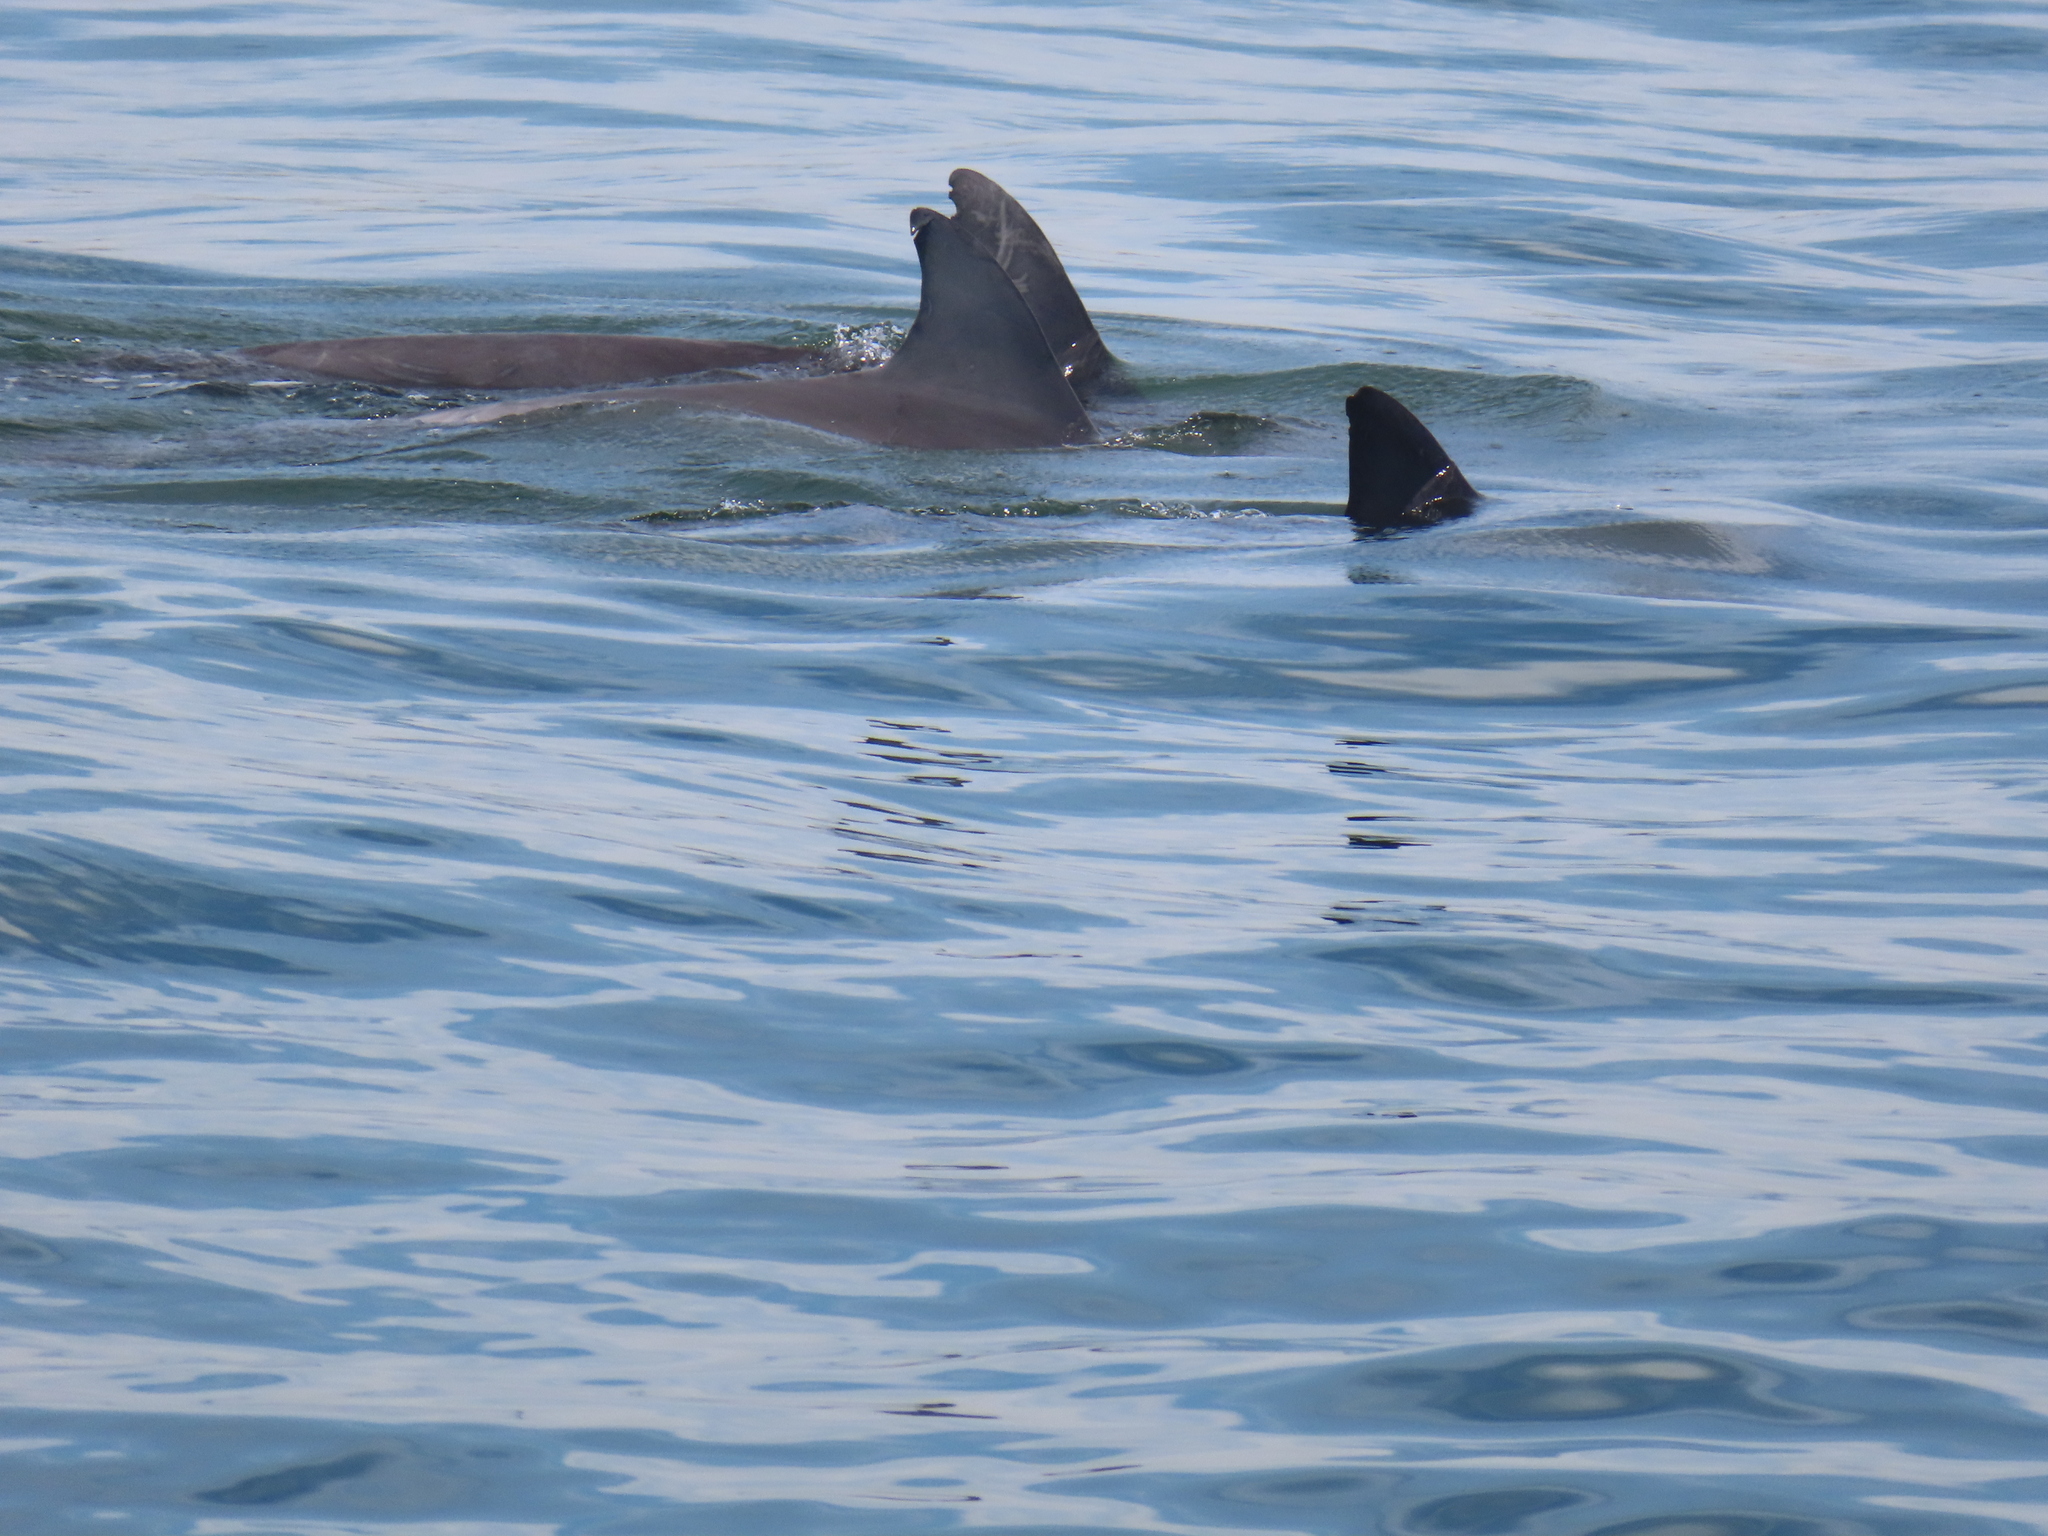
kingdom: Animalia
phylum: Chordata
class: Mammalia
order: Cetacea
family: Delphinidae
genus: Tursiops
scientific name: Tursiops truncatus
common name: Bottlenose dolphin
